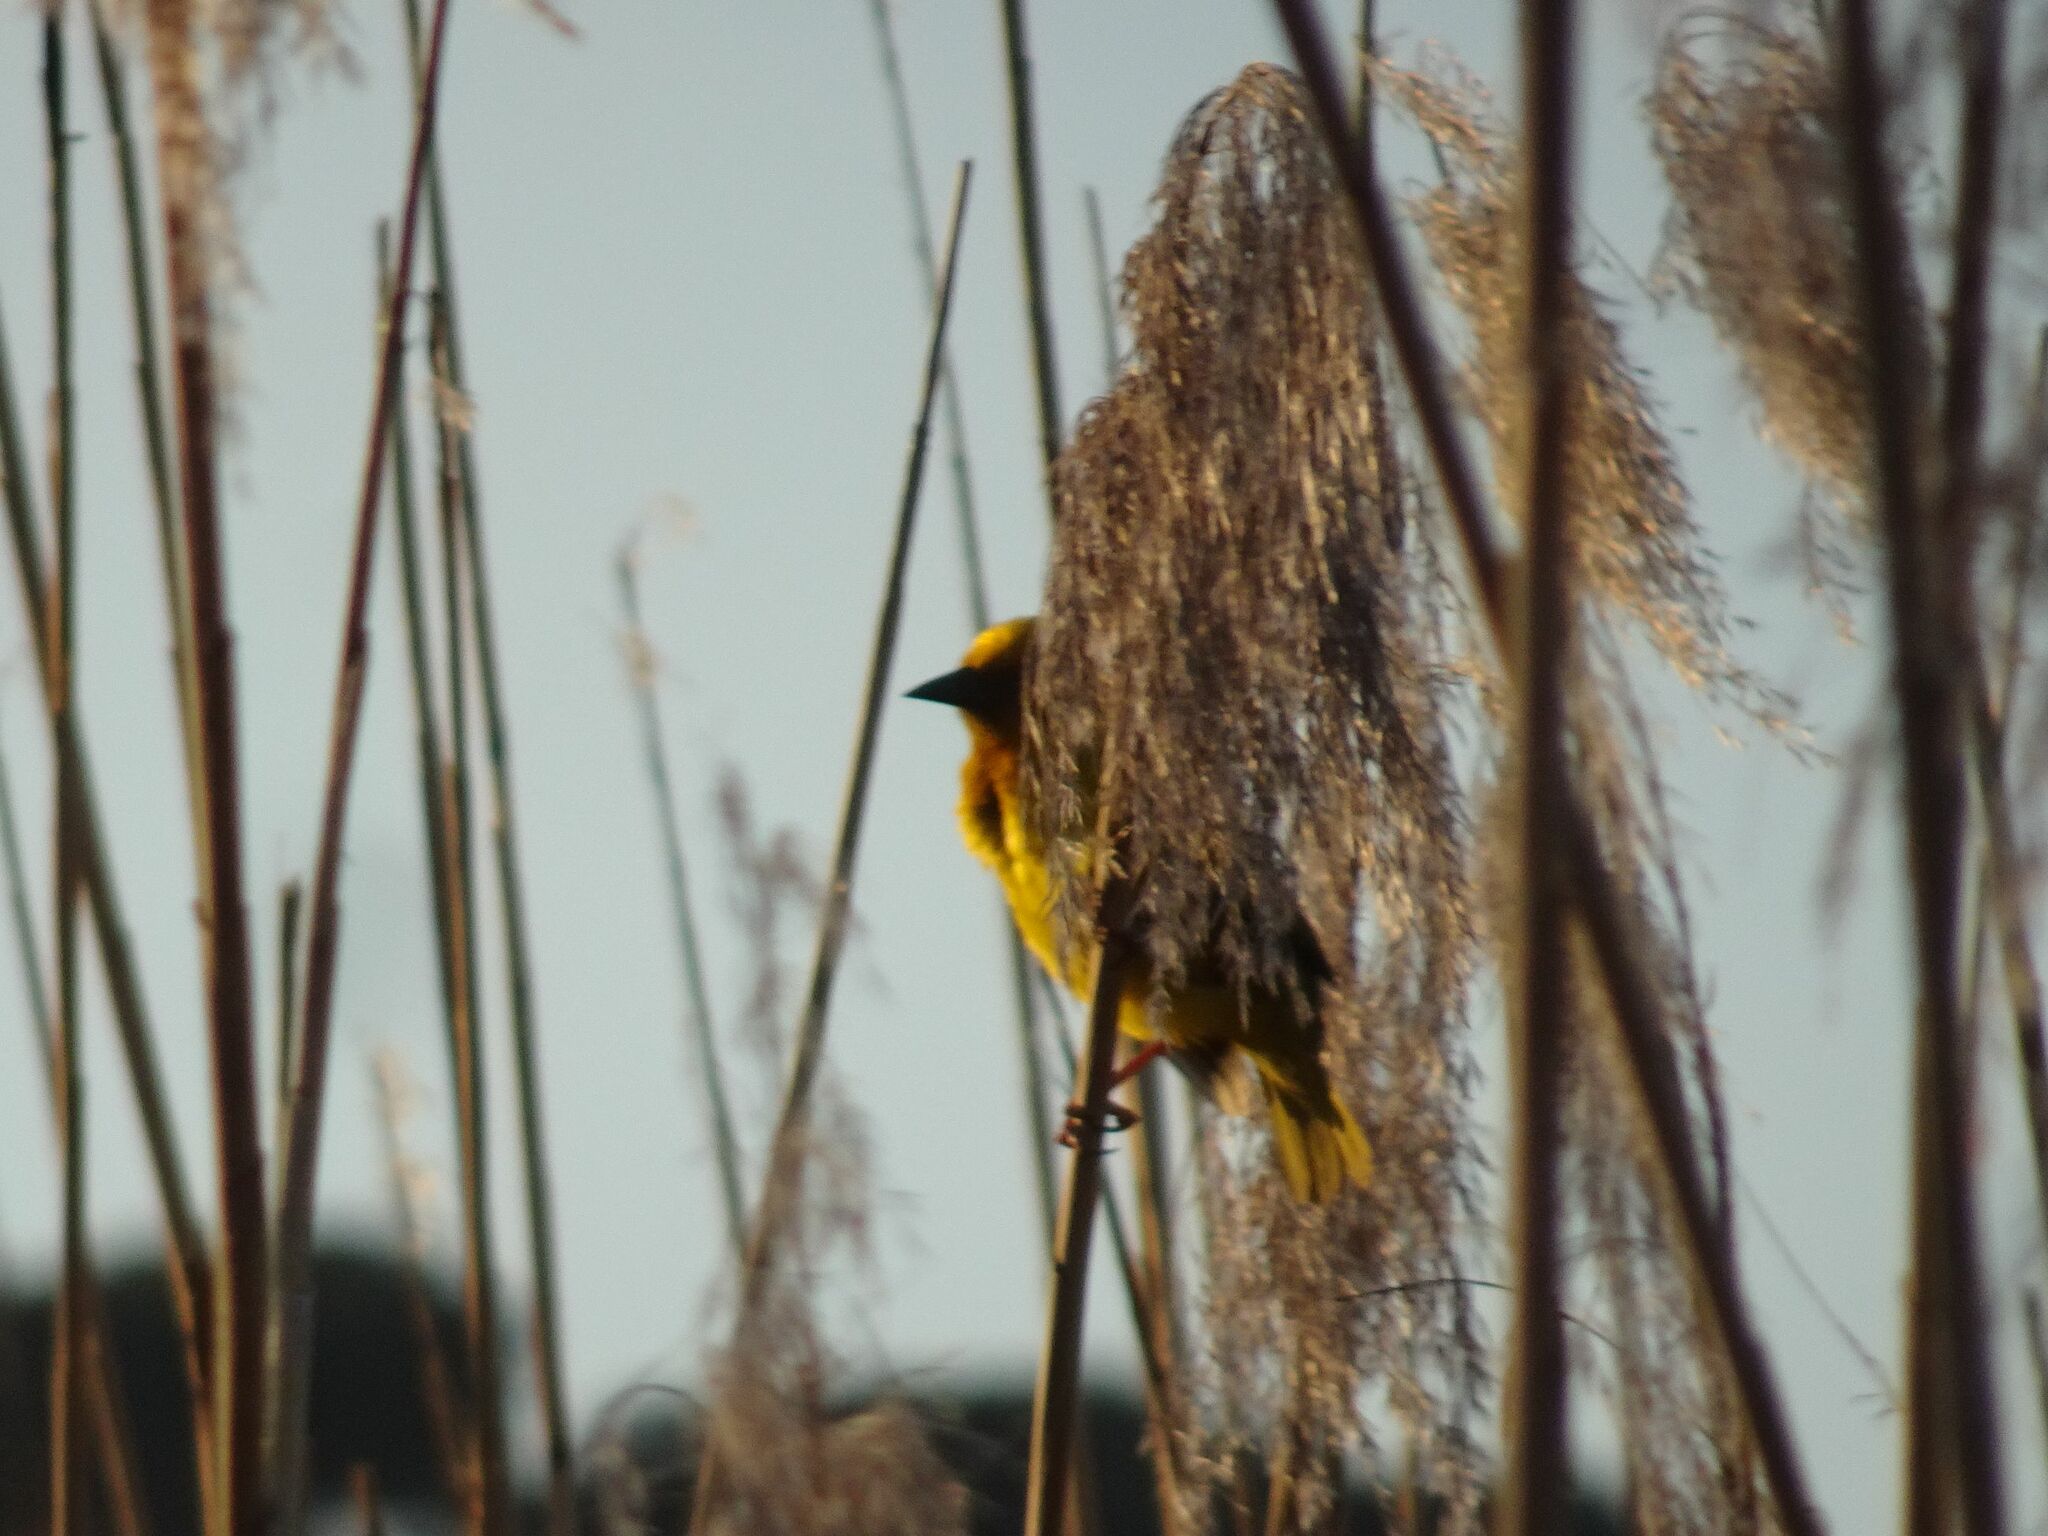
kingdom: Animalia
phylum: Chordata
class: Aves
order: Passeriformes
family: Ploceidae
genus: Ploceus
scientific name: Ploceus capensis
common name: Cape weaver
